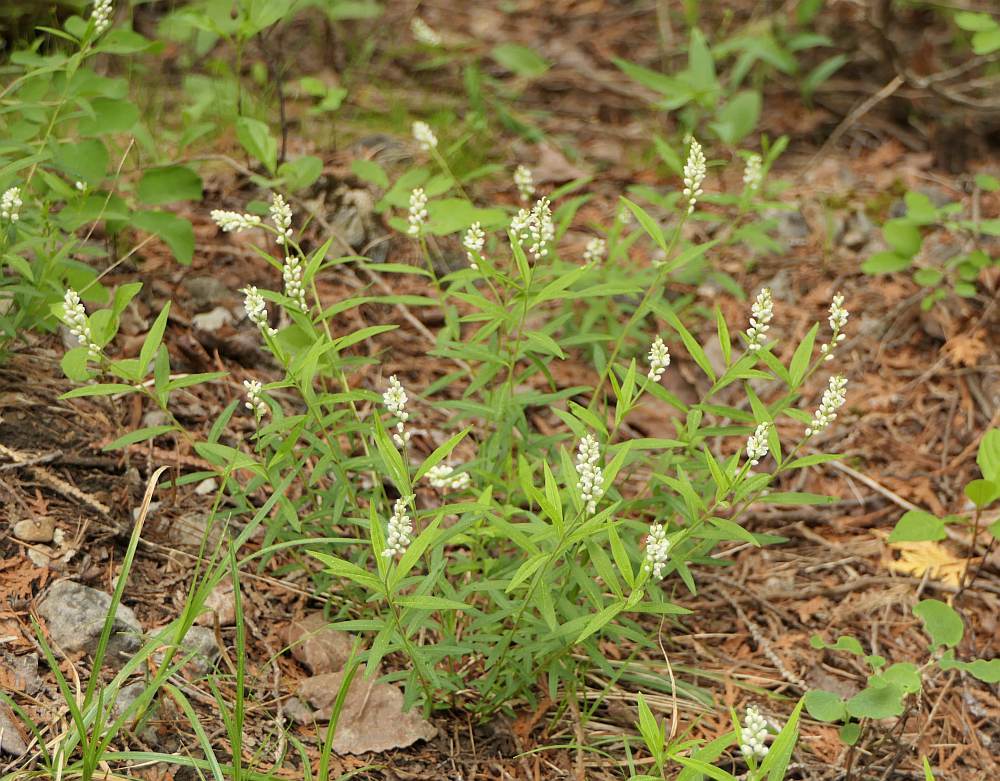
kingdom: Plantae
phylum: Tracheophyta
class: Magnoliopsida
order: Fabales
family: Polygalaceae
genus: Polygala
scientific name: Polygala senega
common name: Seneca snakeroot
